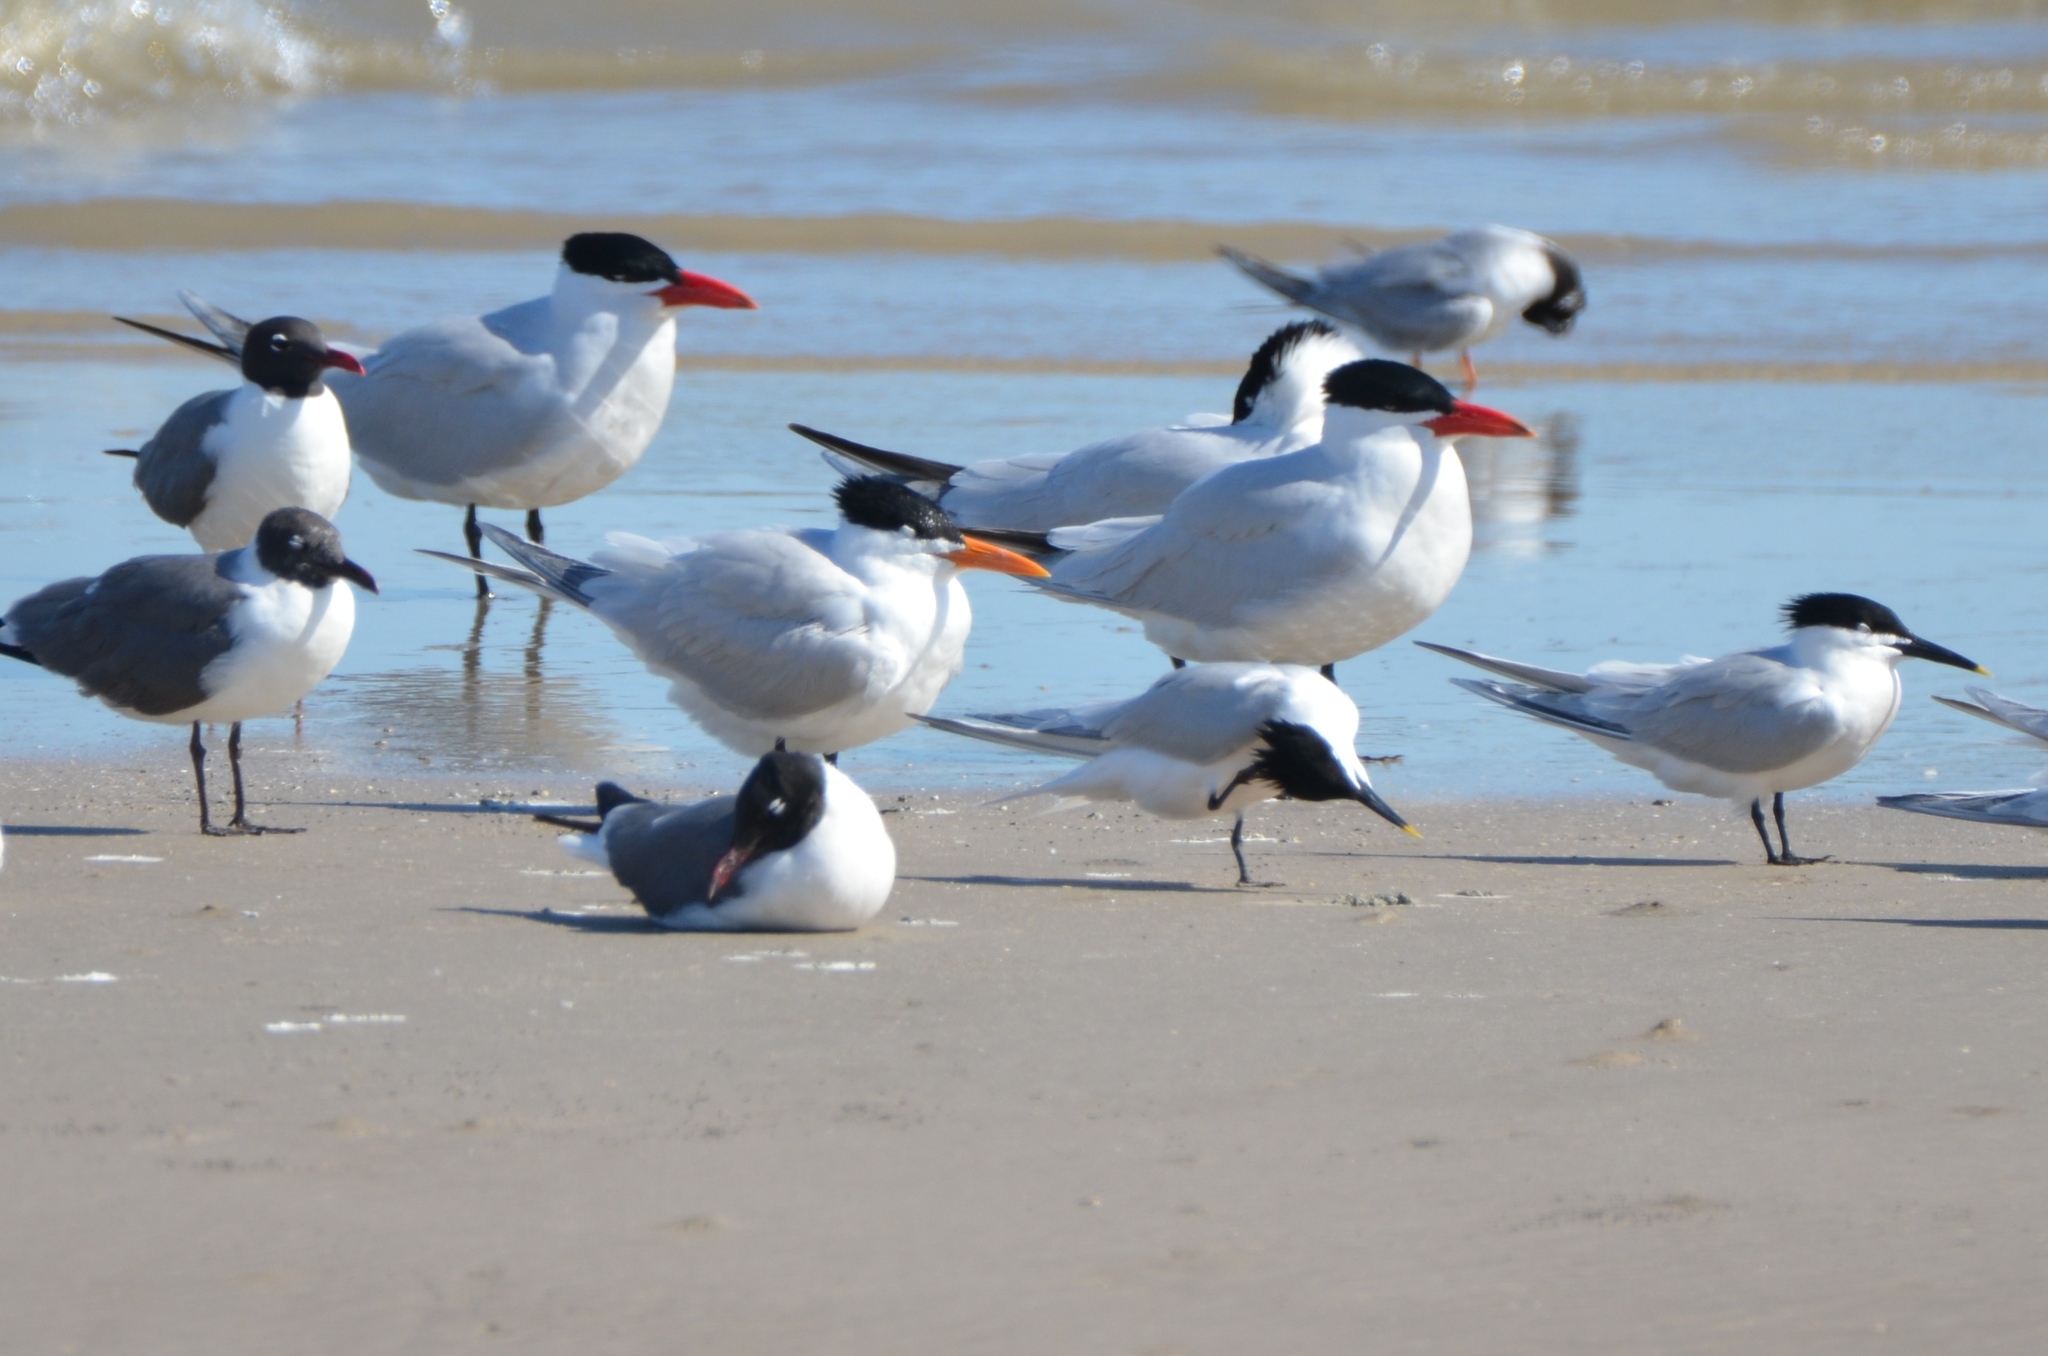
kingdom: Animalia
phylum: Chordata
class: Aves
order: Charadriiformes
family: Laridae
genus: Hydroprogne
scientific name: Hydroprogne caspia
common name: Caspian tern
